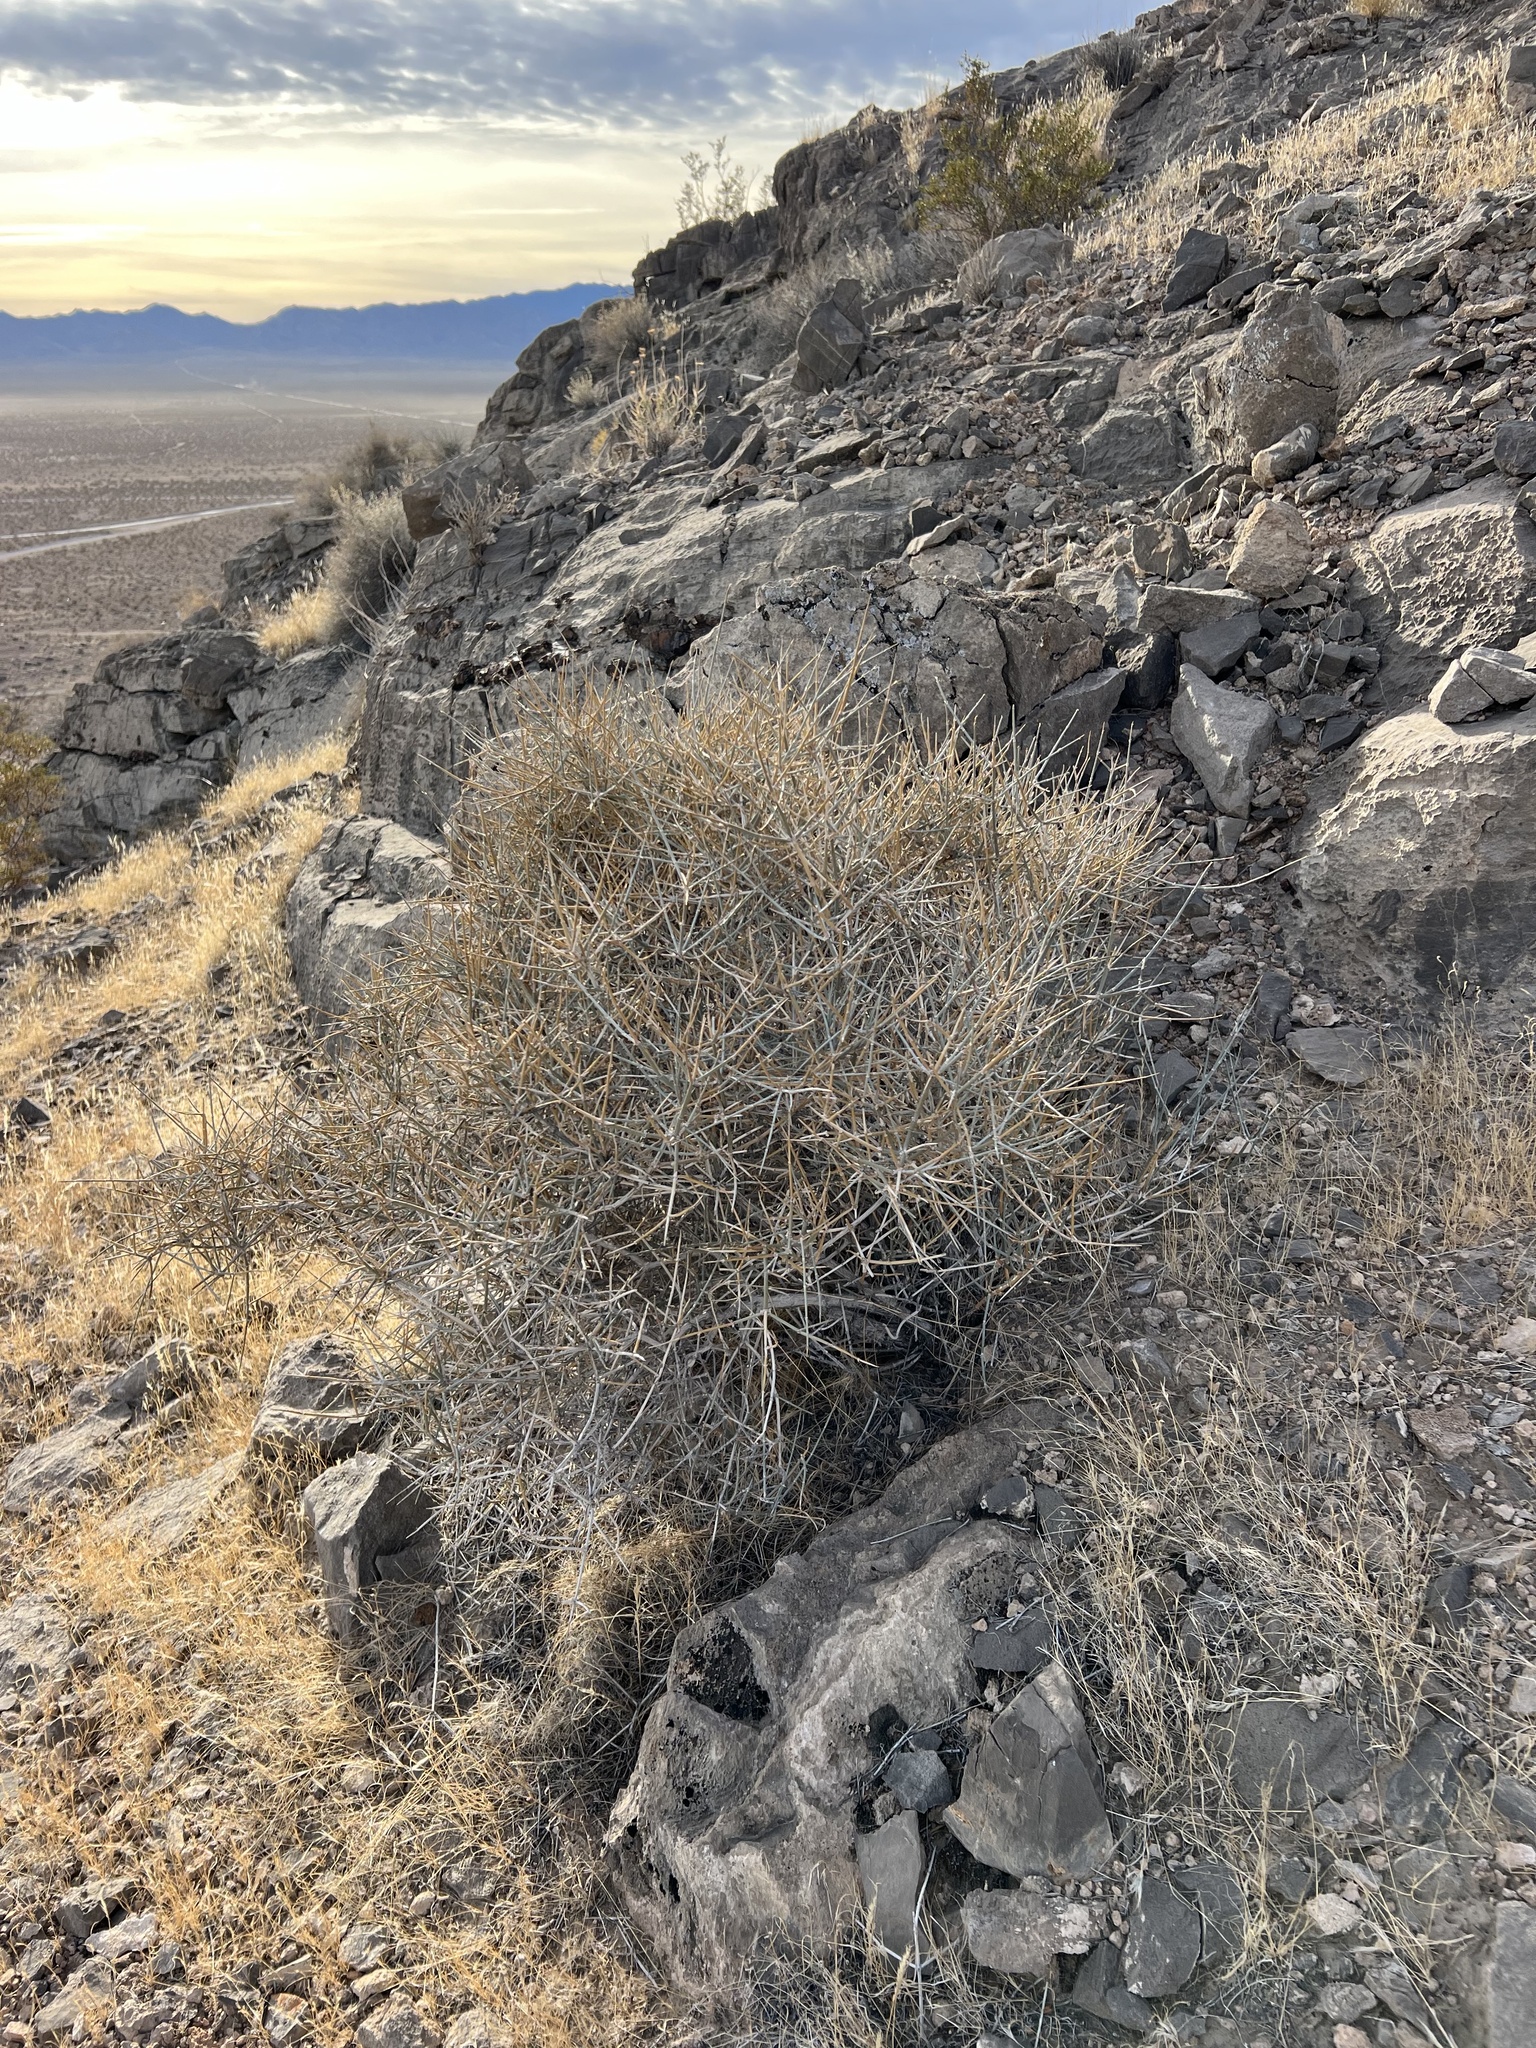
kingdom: Plantae
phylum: Tracheophyta
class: Gnetopsida
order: Ephedrales
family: Ephedraceae
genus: Ephedra
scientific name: Ephedra nevadensis
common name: Gray ephedra
